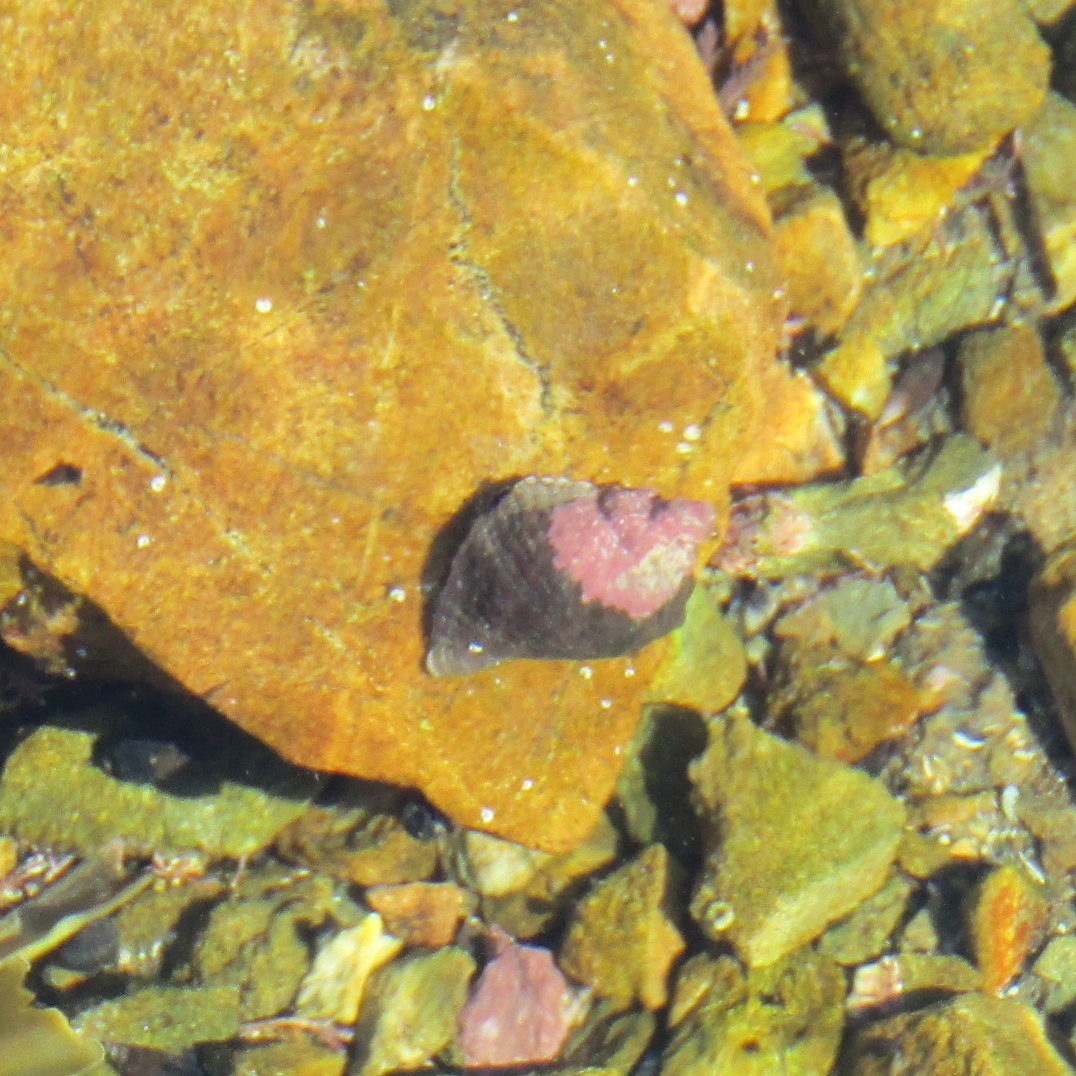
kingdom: Animalia
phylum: Mollusca
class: Gastropoda
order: Neogastropoda
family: Muricidae
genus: Haustrum
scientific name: Haustrum haustorium
